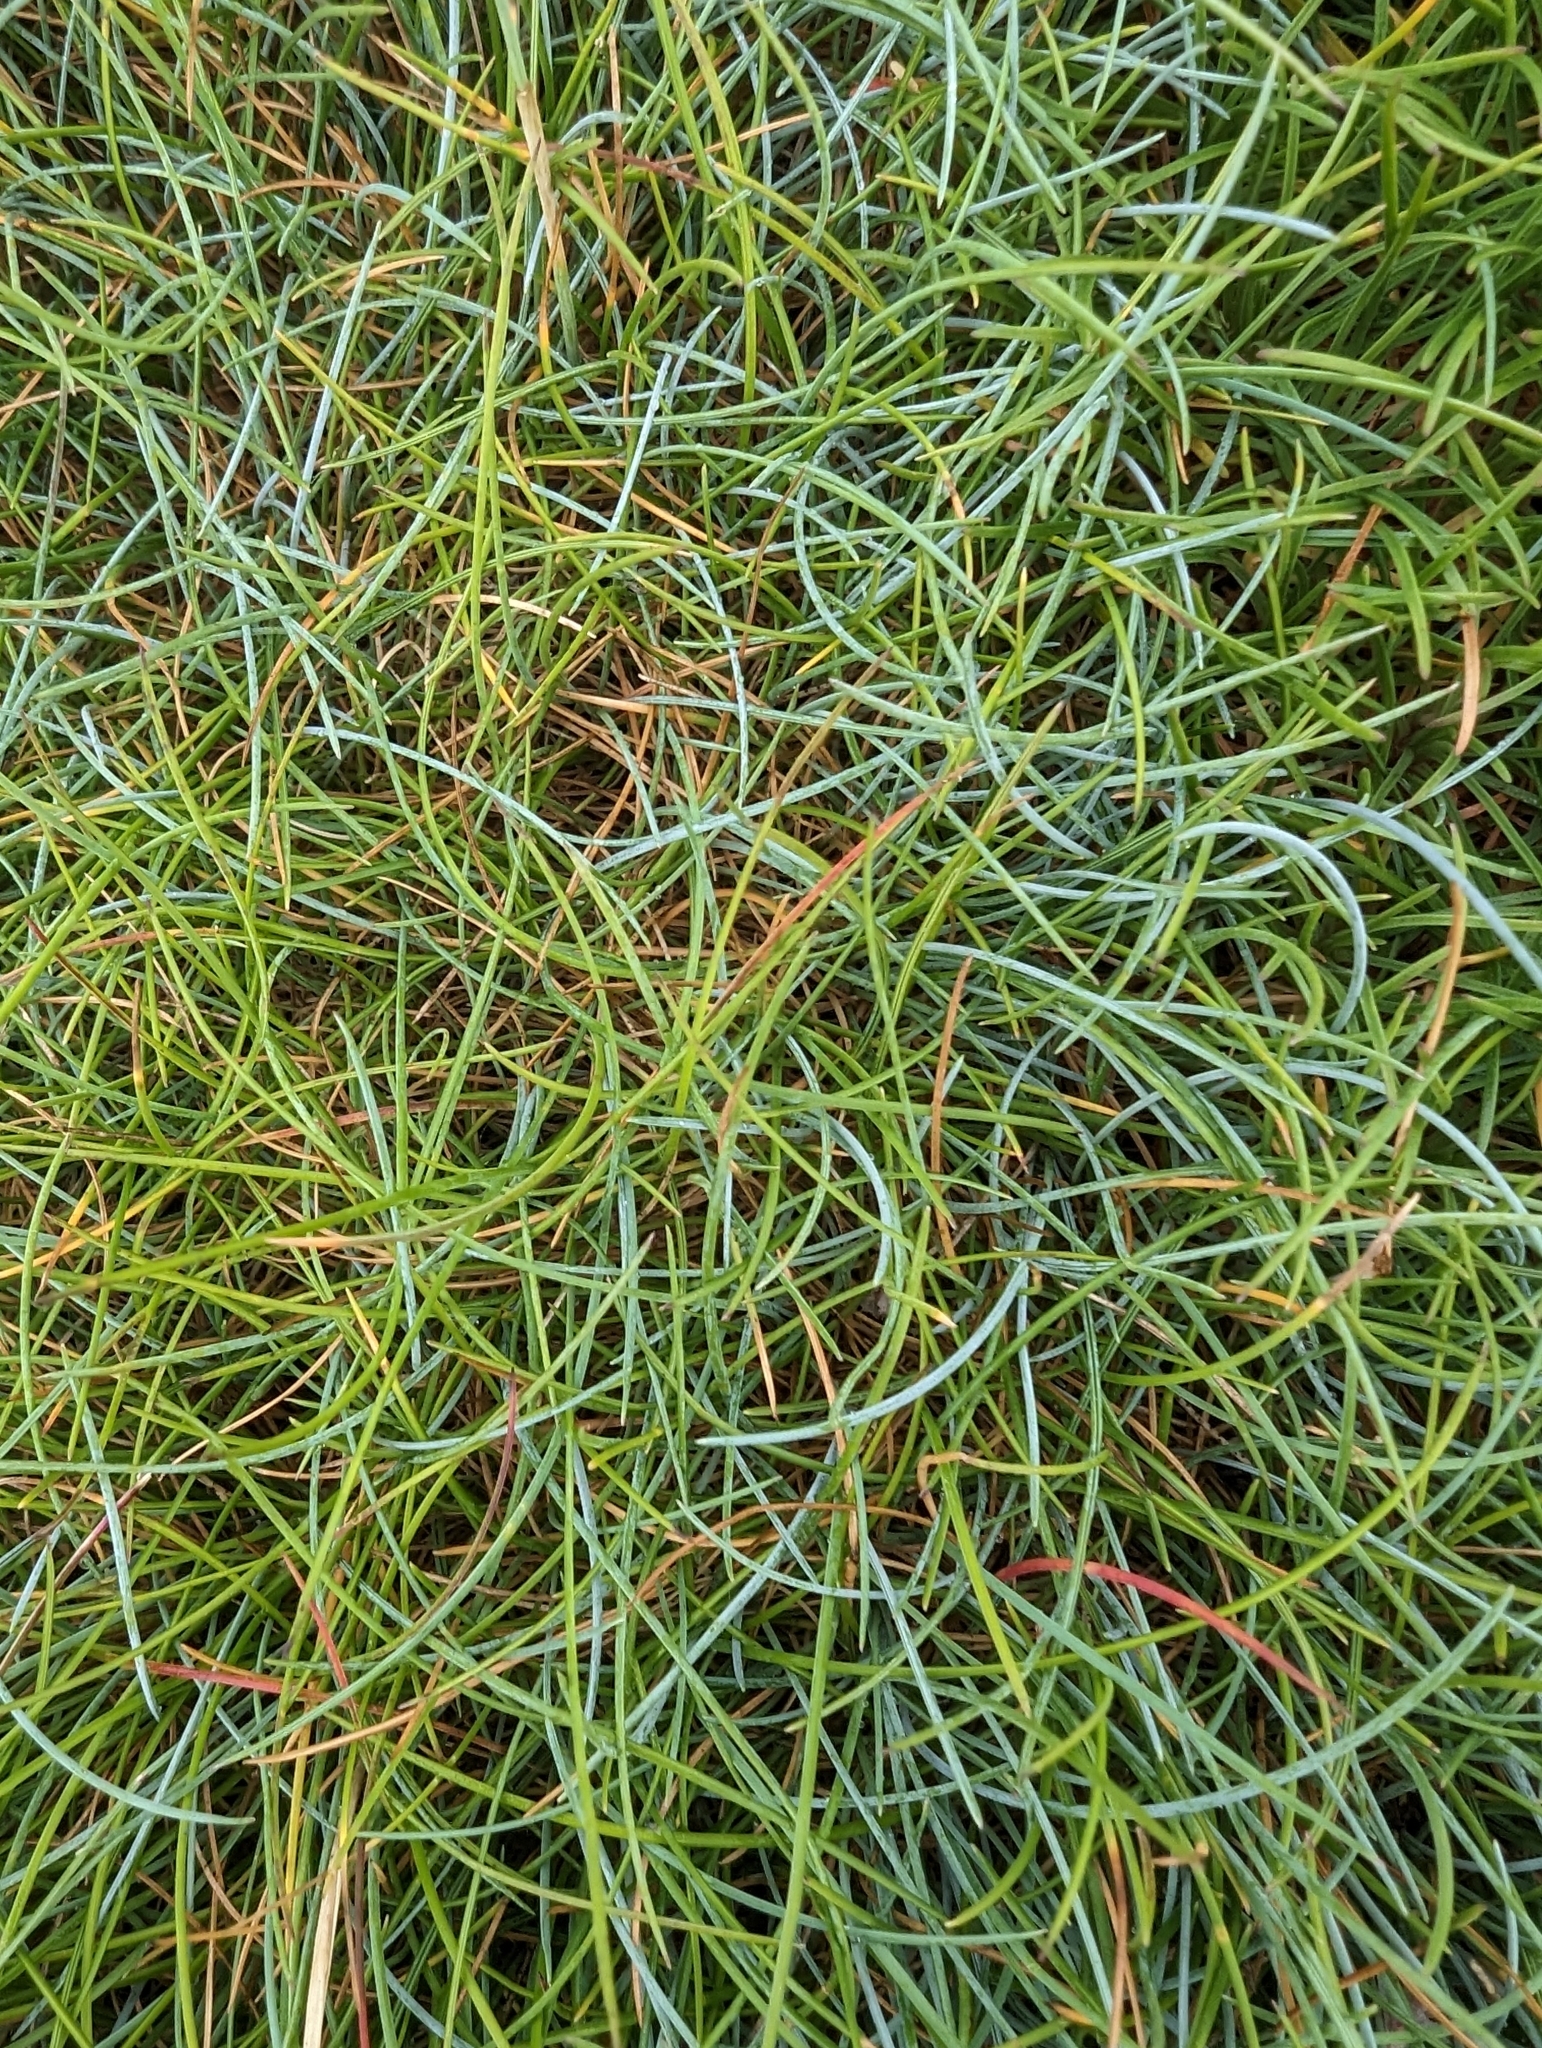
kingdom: Plantae
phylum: Tracheophyta
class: Magnoliopsida
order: Caryophyllales
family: Plumbaginaceae
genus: Armeria
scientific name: Armeria maritima
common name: Thrift
